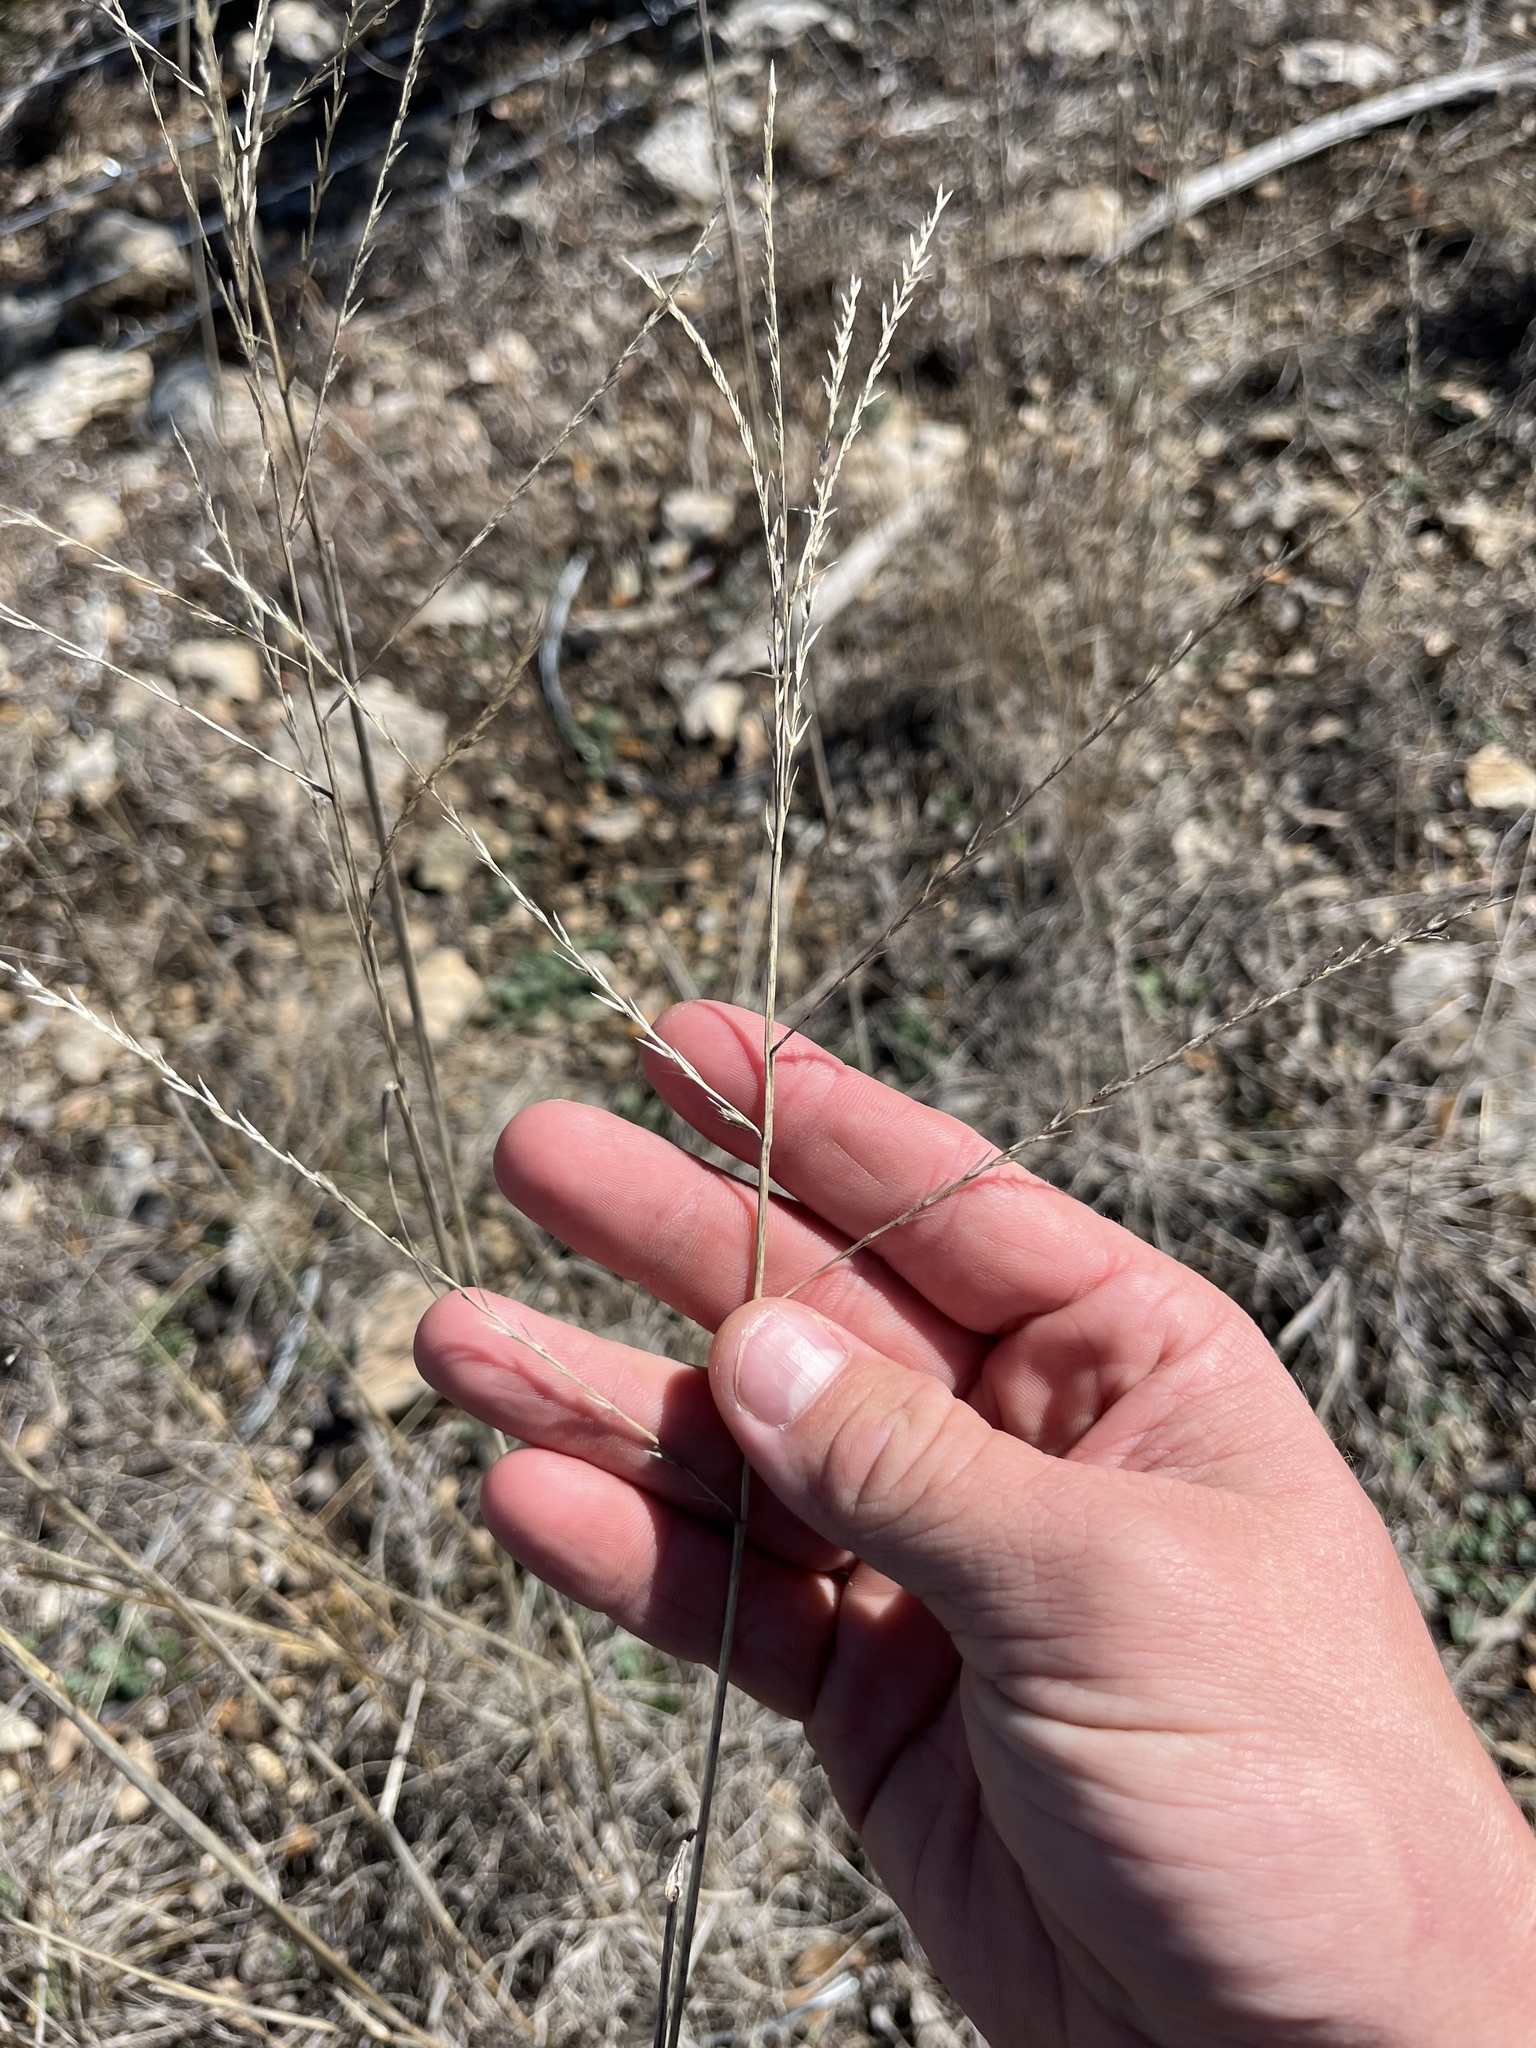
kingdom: Plantae
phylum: Tracheophyta
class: Liliopsida
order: Poales
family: Poaceae
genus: Disakisperma
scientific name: Disakisperma dubium
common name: Green sprangletop
